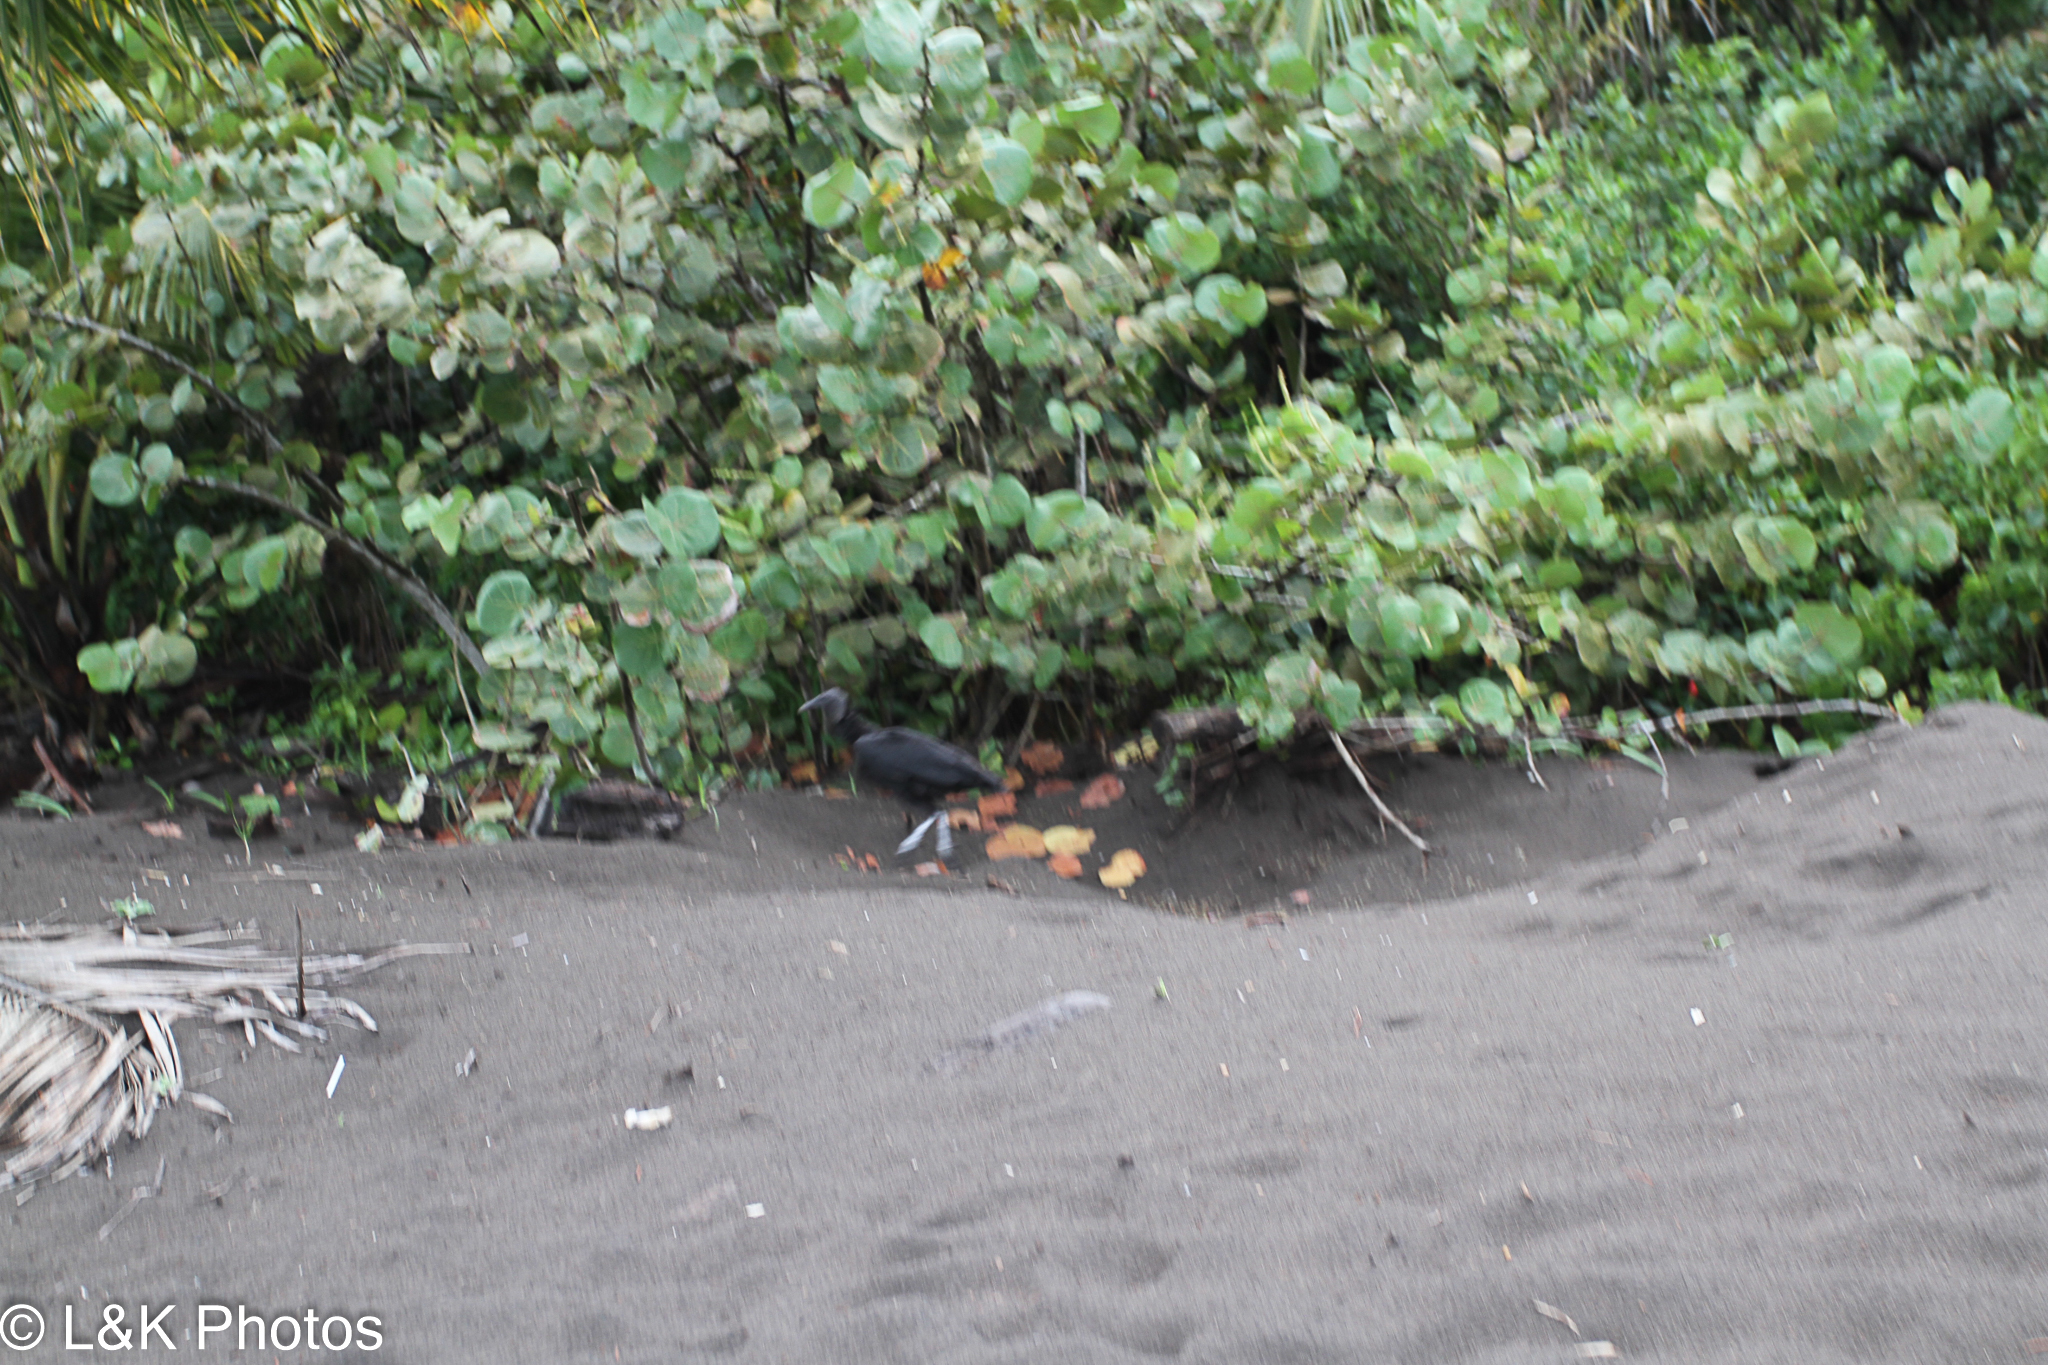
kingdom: Animalia
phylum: Chordata
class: Aves
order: Accipitriformes
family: Cathartidae
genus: Coragyps
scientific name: Coragyps atratus
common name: Black vulture
